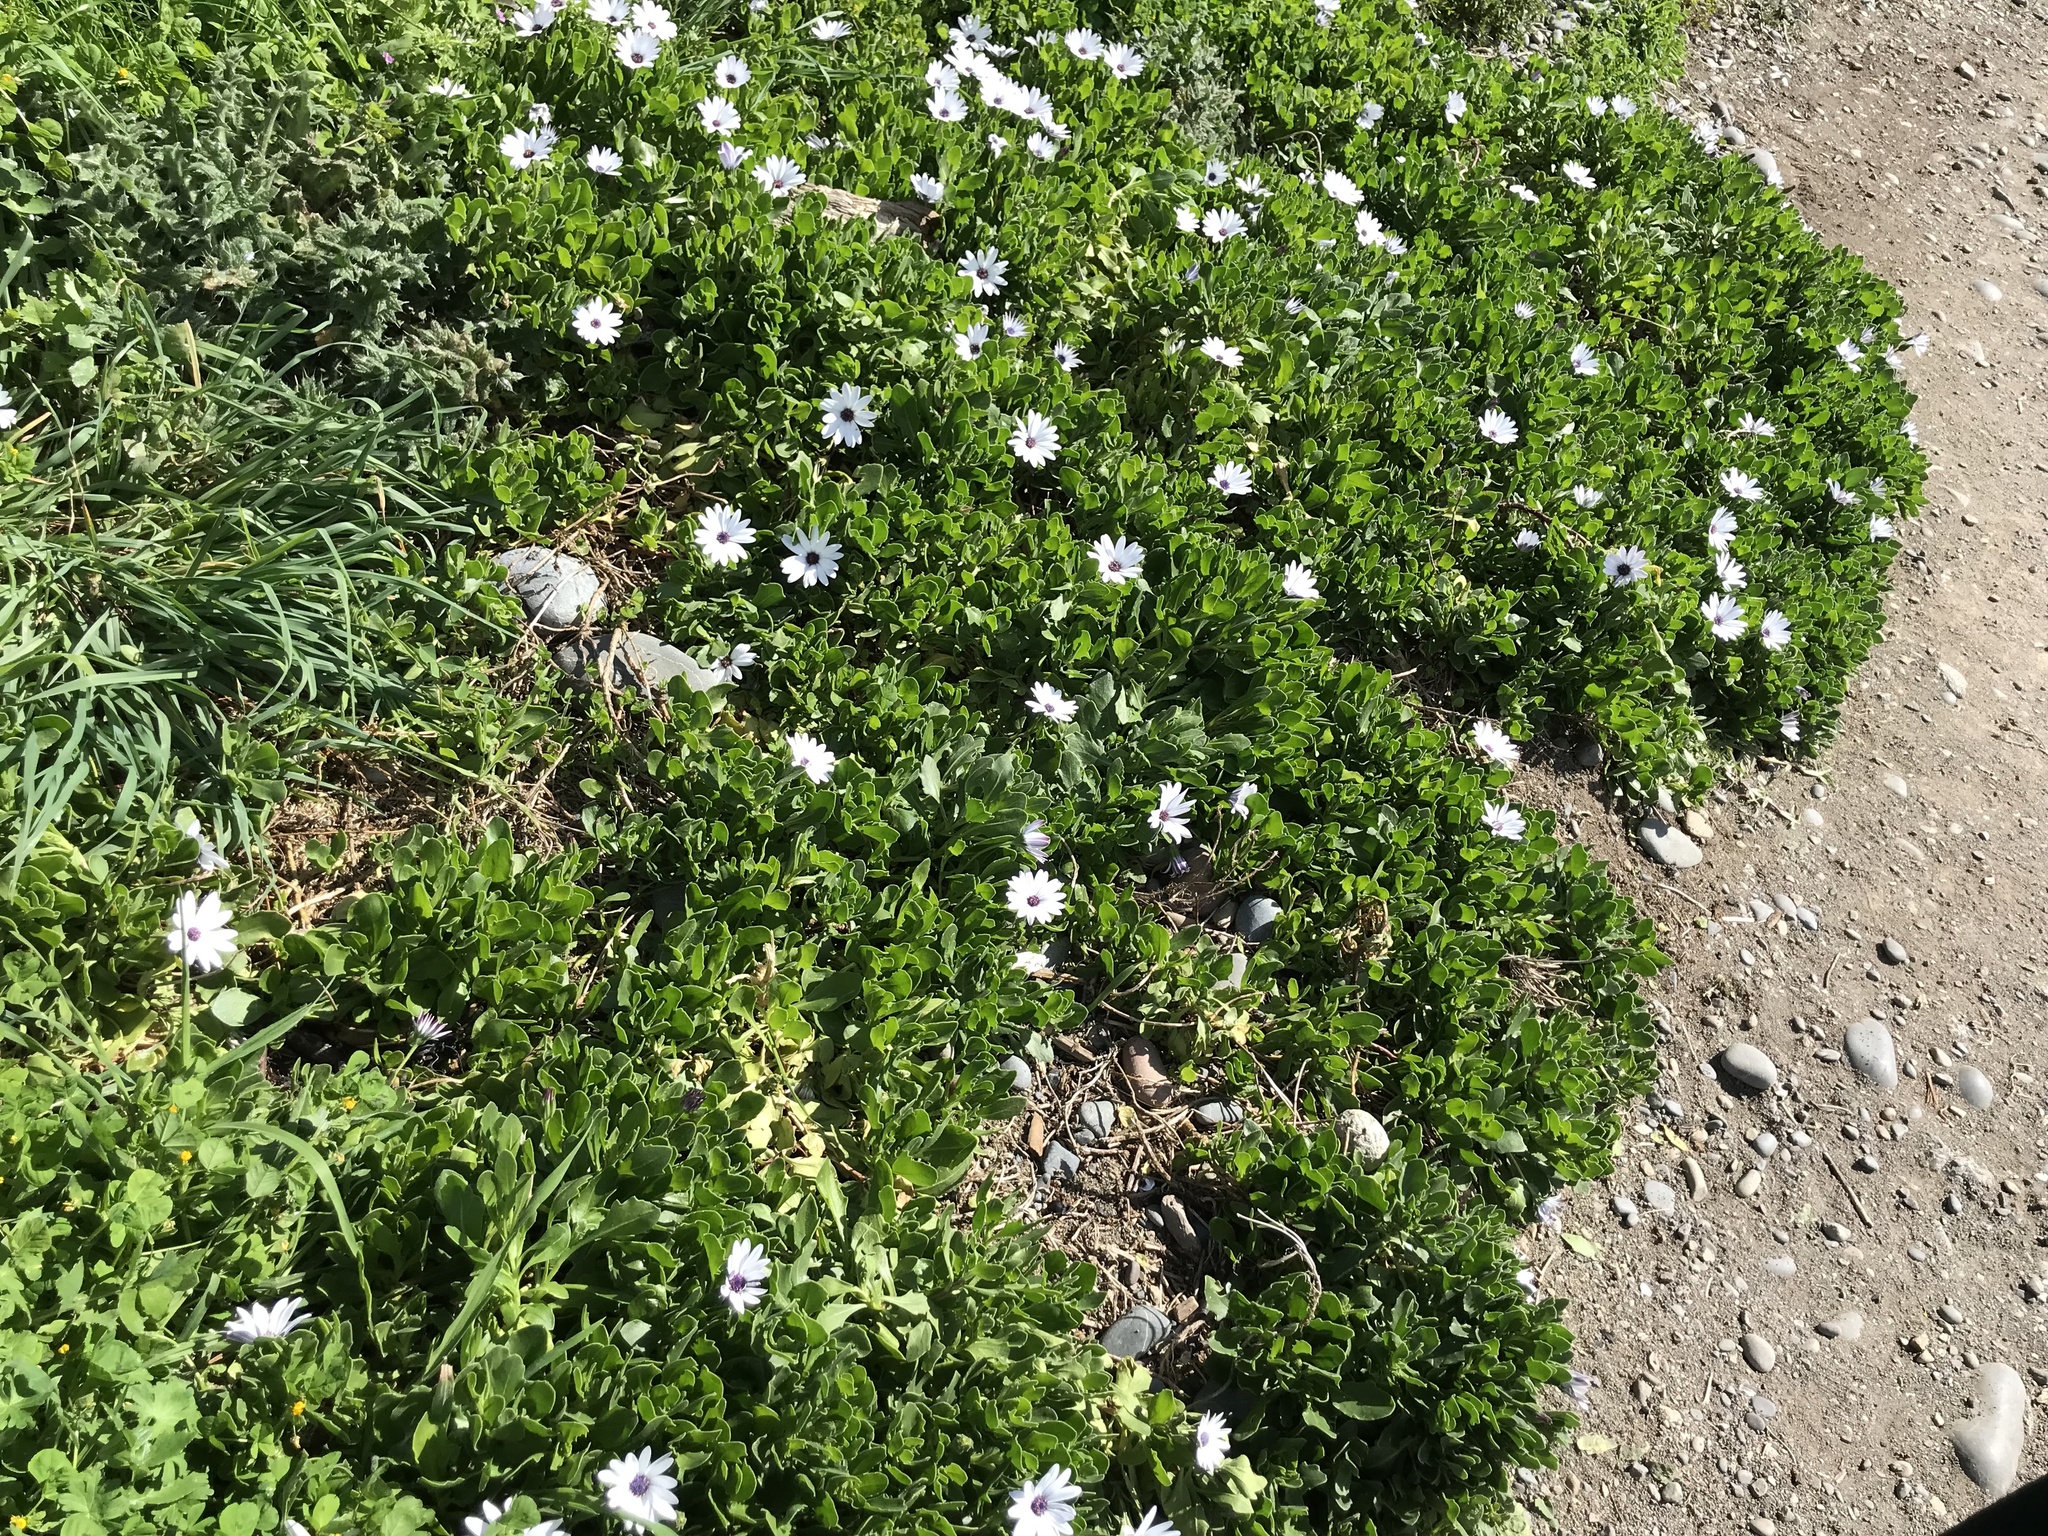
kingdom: Plantae
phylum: Tracheophyta
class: Magnoliopsida
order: Asterales
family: Asteraceae
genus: Dimorphotheca
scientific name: Dimorphotheca fruticosa
